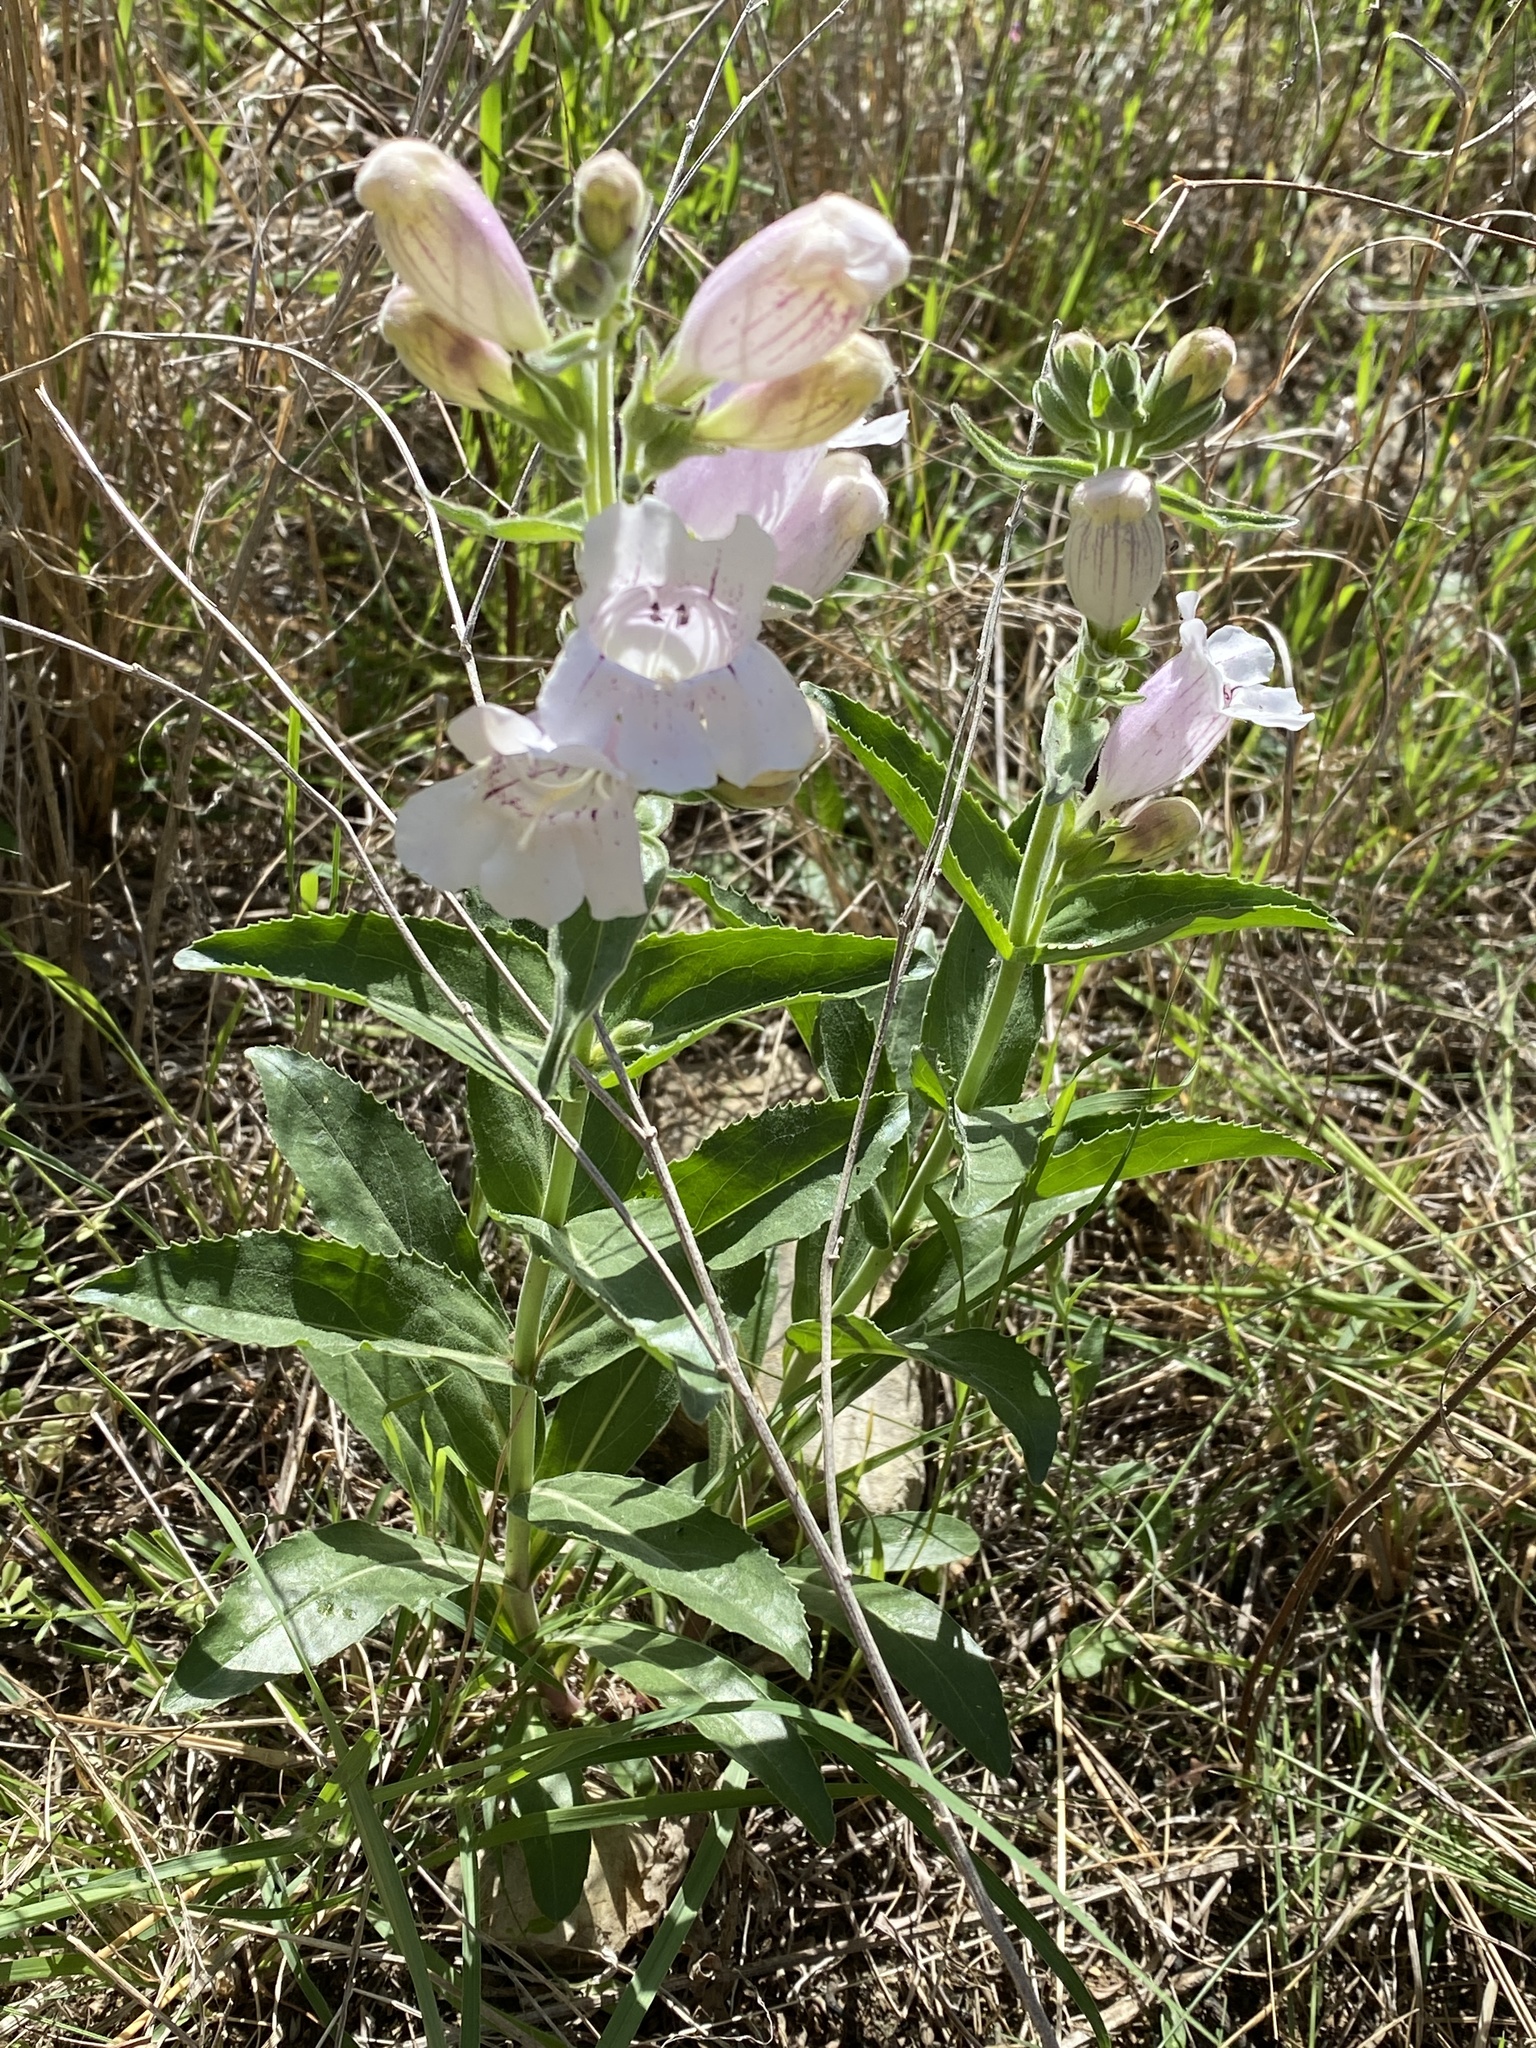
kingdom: Plantae
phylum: Tracheophyta
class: Magnoliopsida
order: Lamiales
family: Plantaginaceae
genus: Penstemon
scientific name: Penstemon cobaea
